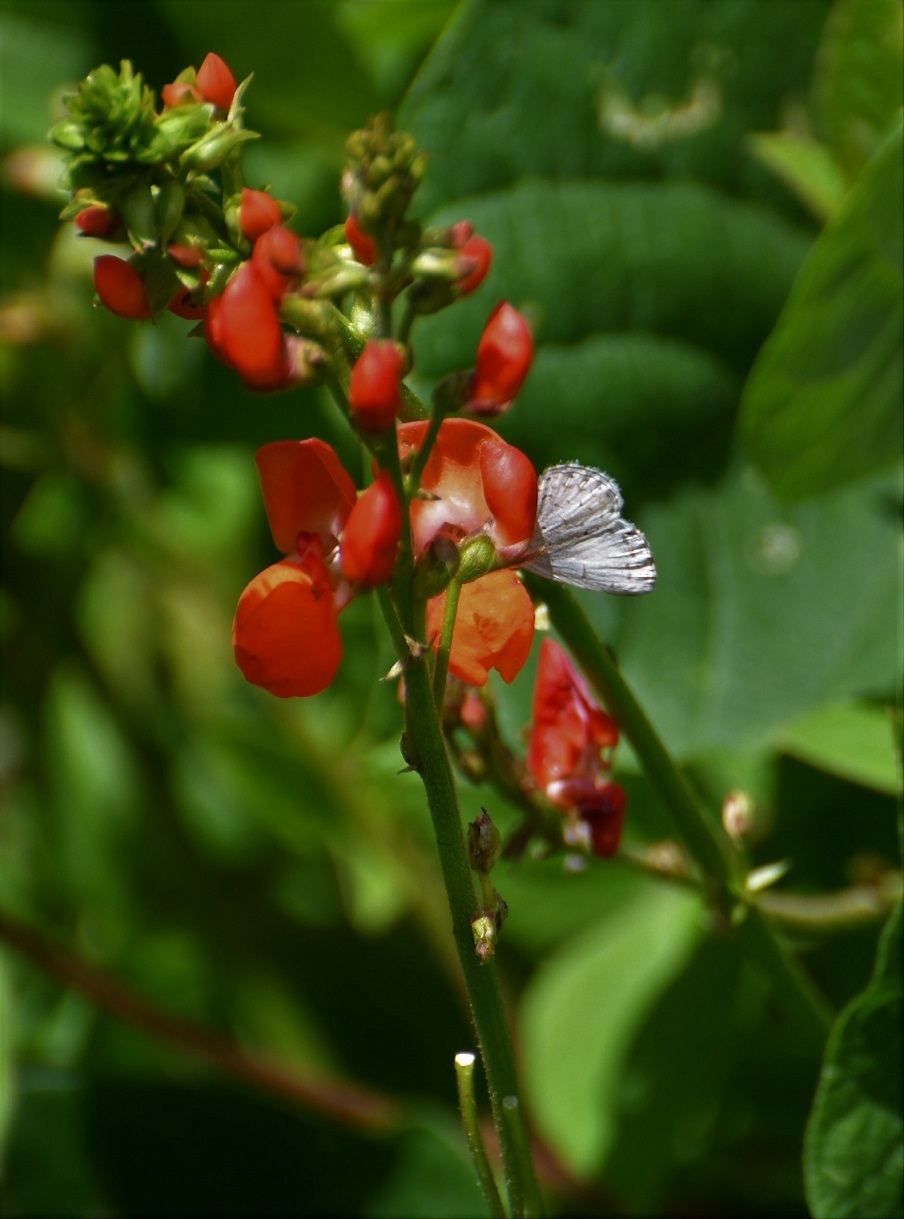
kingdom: Animalia
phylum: Arthropoda
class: Insecta
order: Lepidoptera
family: Lycaenidae
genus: Celastrina
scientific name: Celastrina ladon
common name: Spring azure
